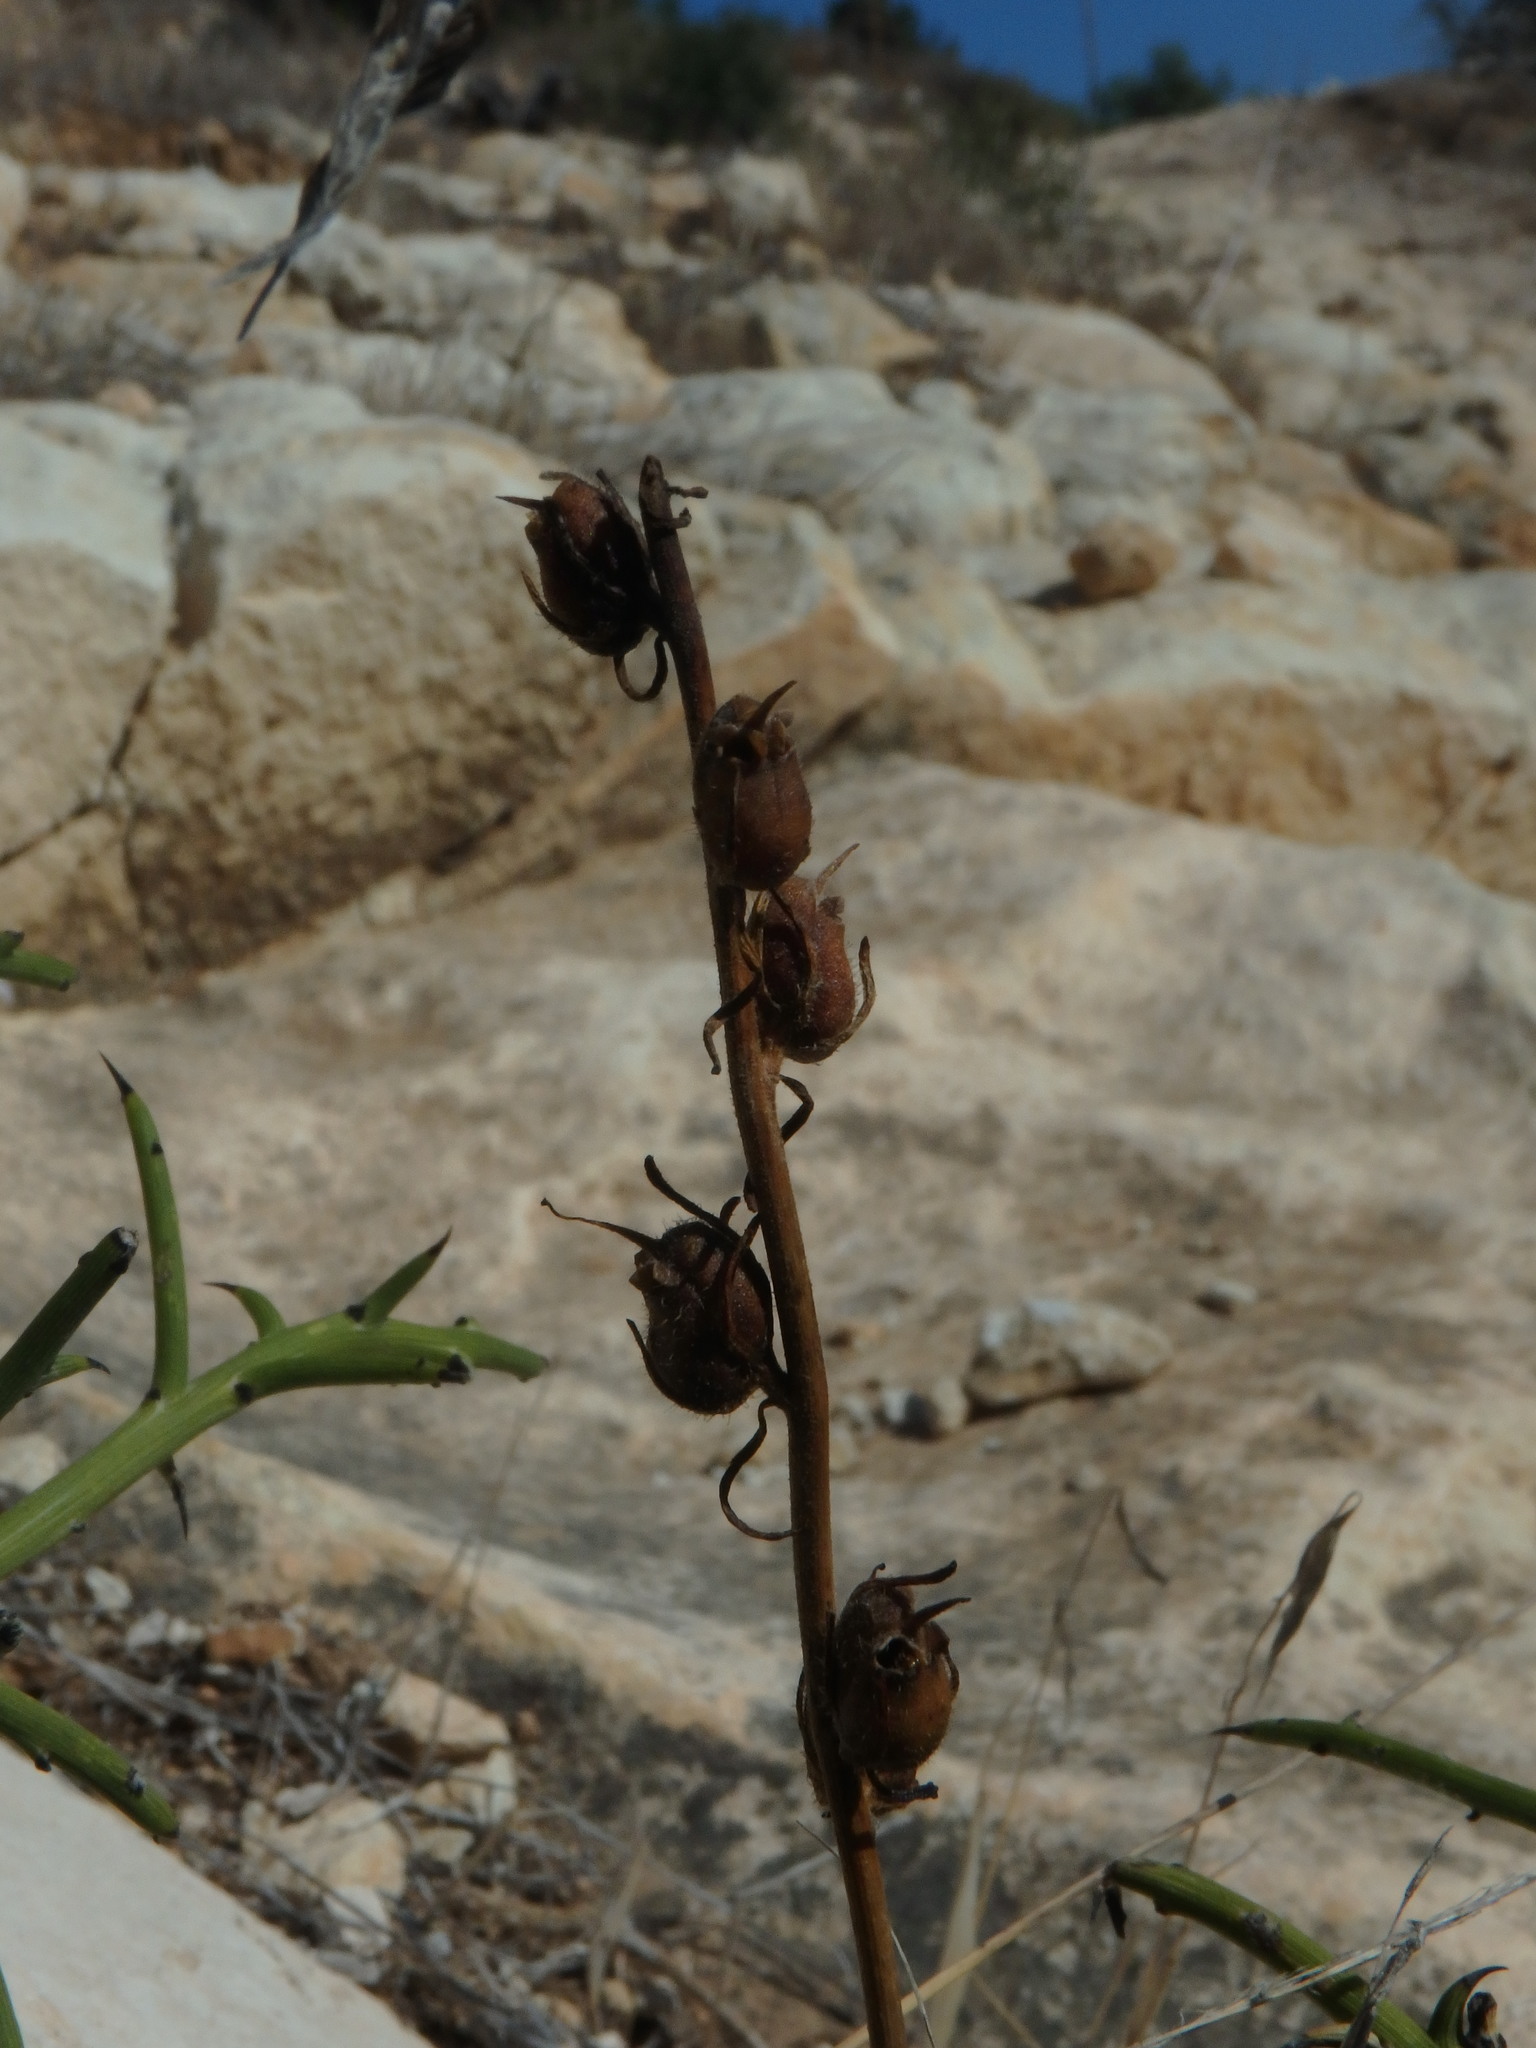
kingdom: Plantae
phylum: Tracheophyta
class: Magnoliopsida
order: Lamiales
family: Plantaginaceae
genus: Misopates
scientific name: Misopates orontium
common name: Weasel's-snout
